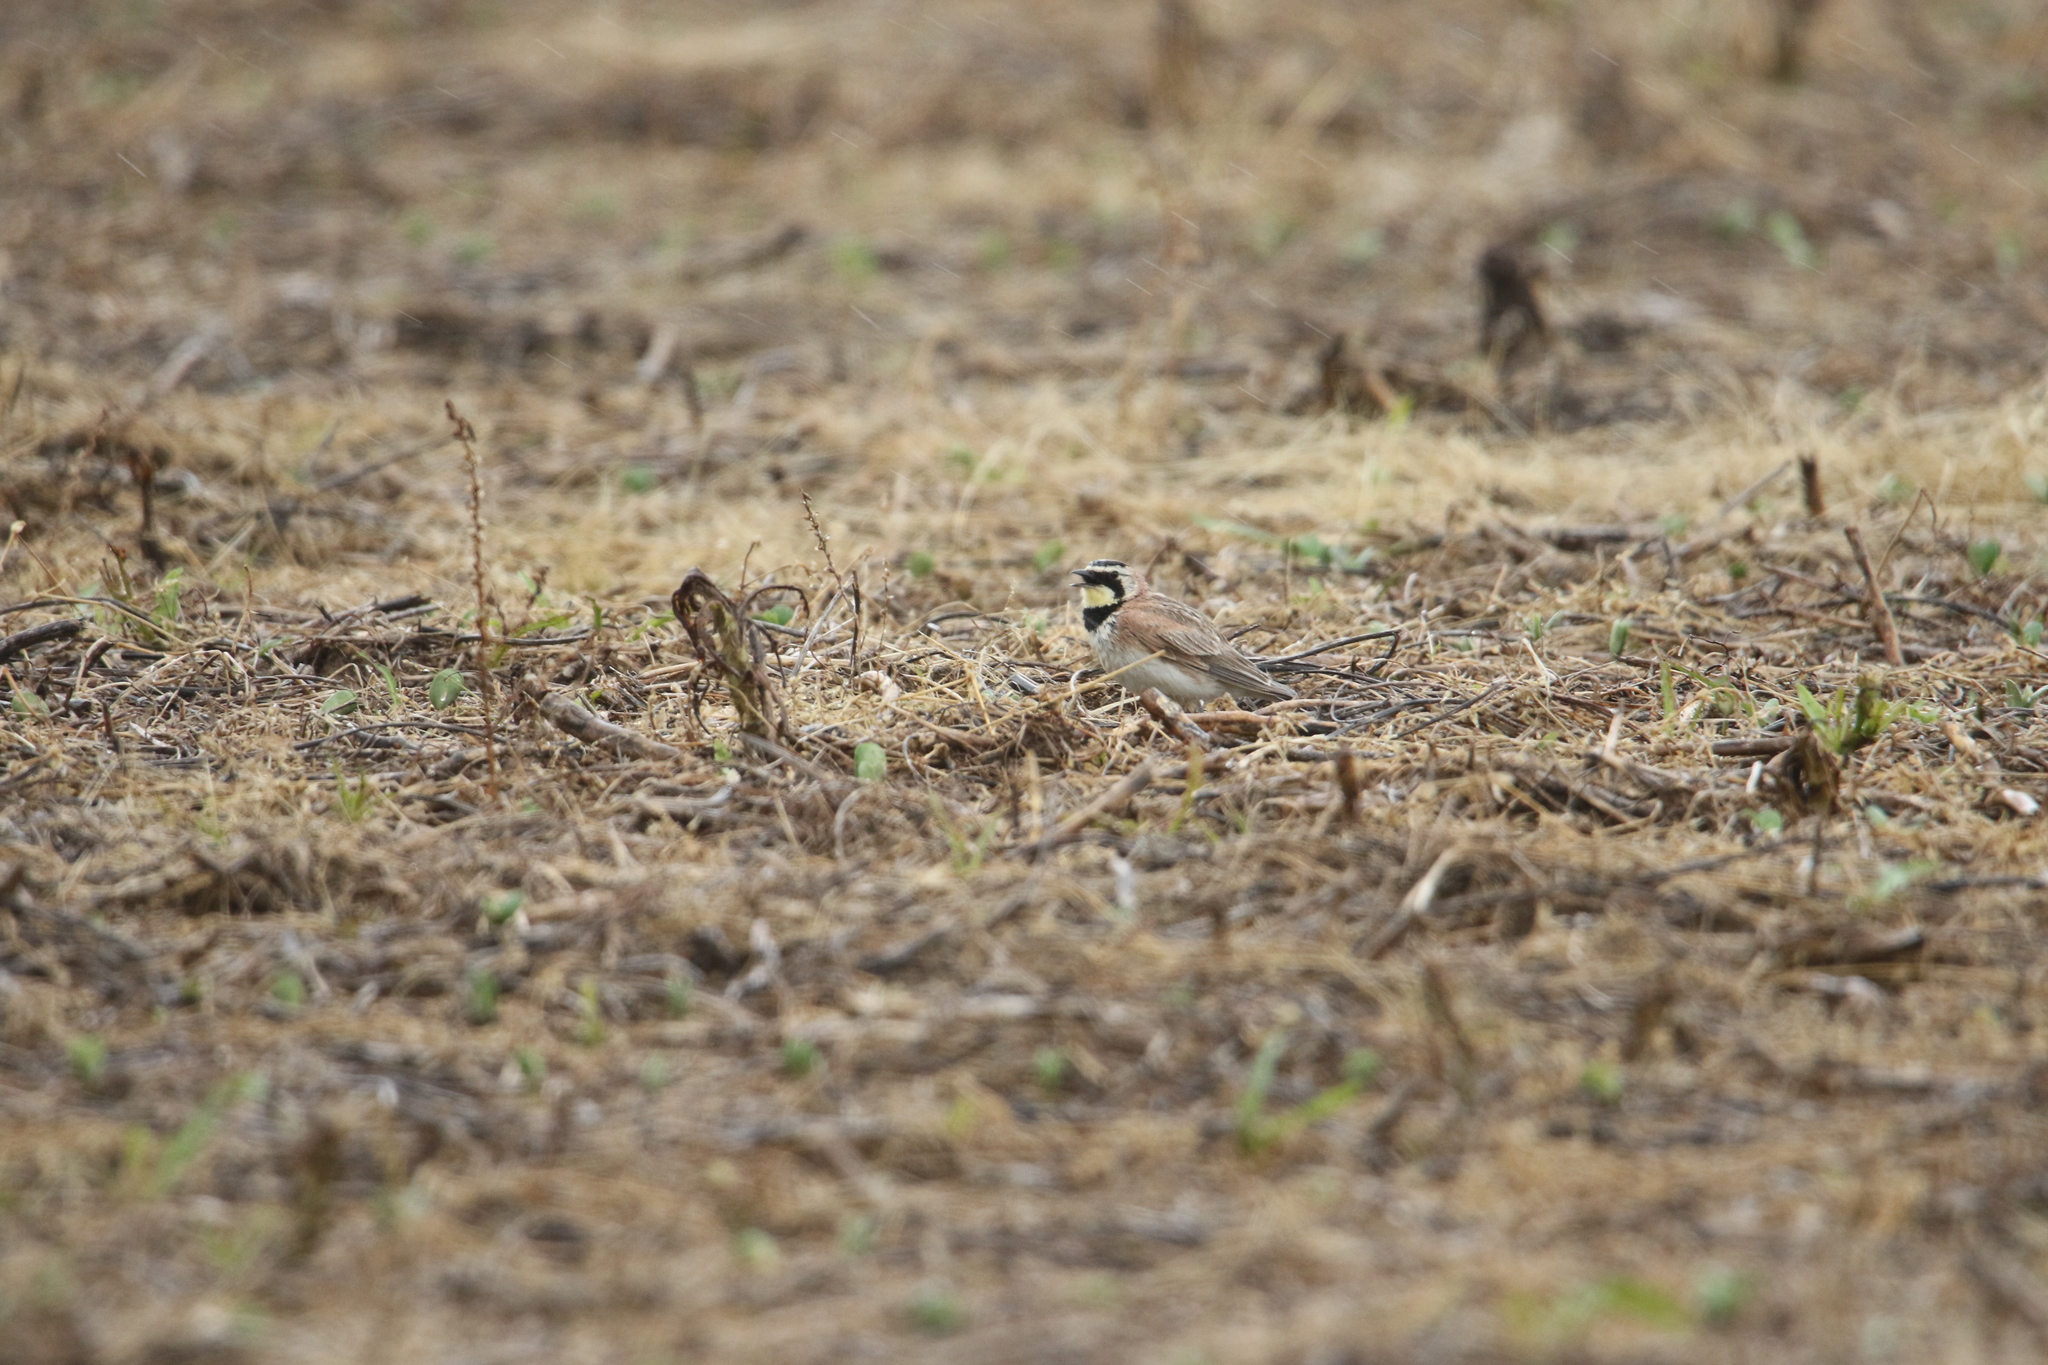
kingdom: Animalia
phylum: Chordata
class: Aves
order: Passeriformes
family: Alaudidae
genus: Eremophila
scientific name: Eremophila alpestris
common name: Horned lark
